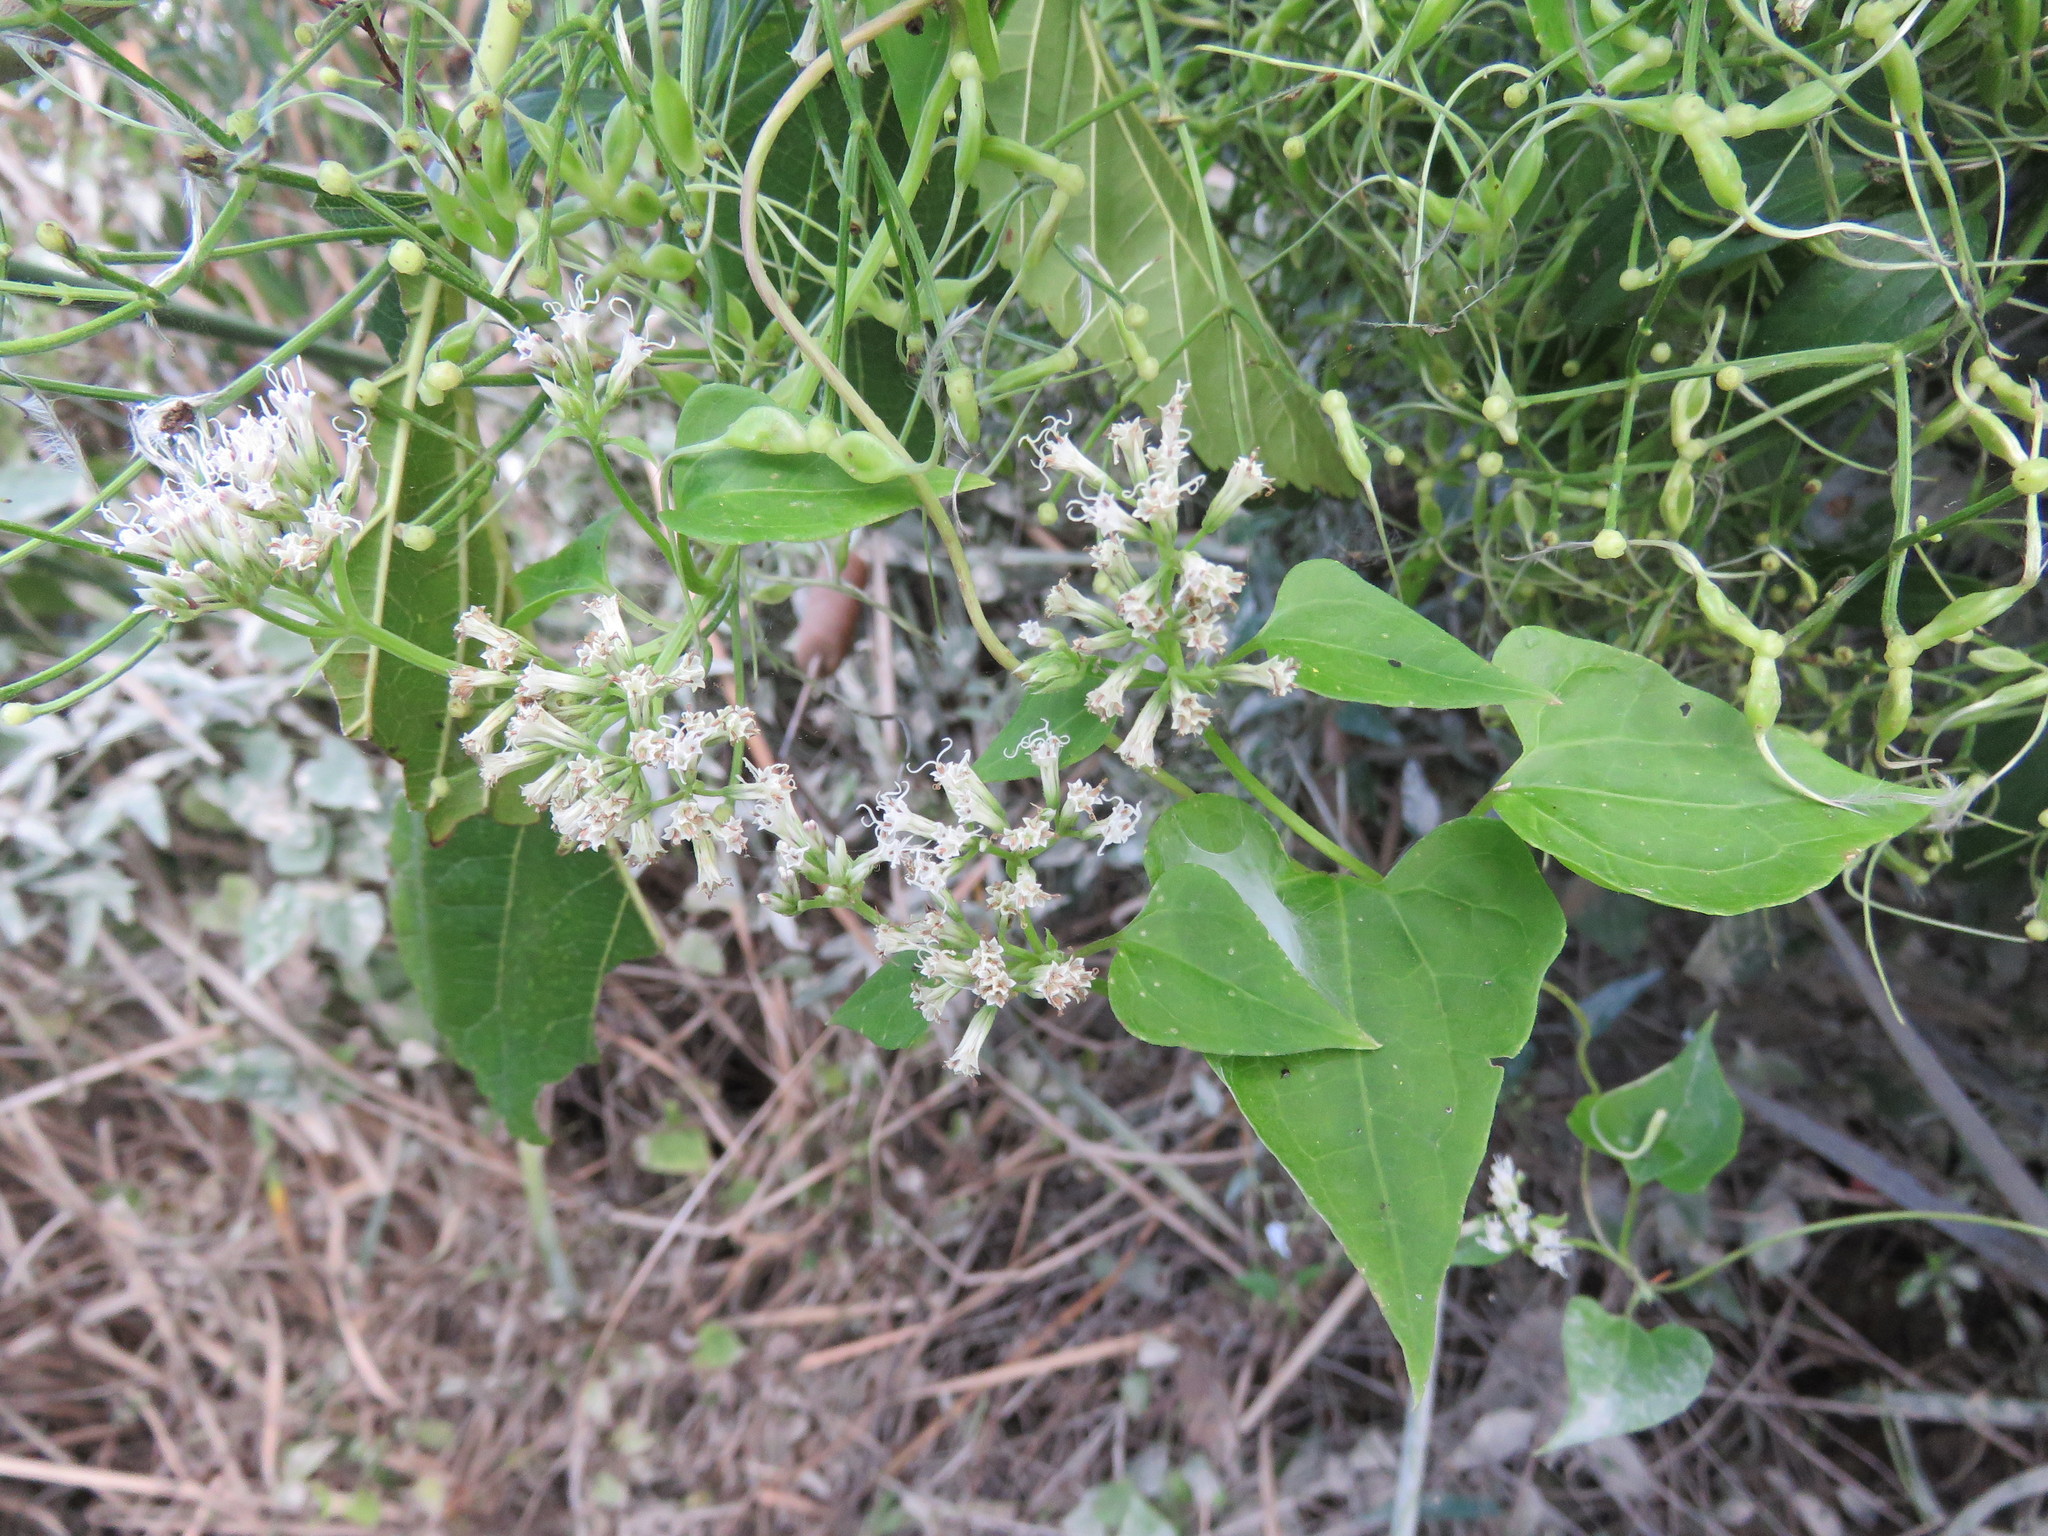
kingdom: Plantae
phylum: Tracheophyta
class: Magnoliopsida
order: Asterales
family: Asteraceae
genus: Mikania
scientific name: Mikania scandens
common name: Climbing hempvine
